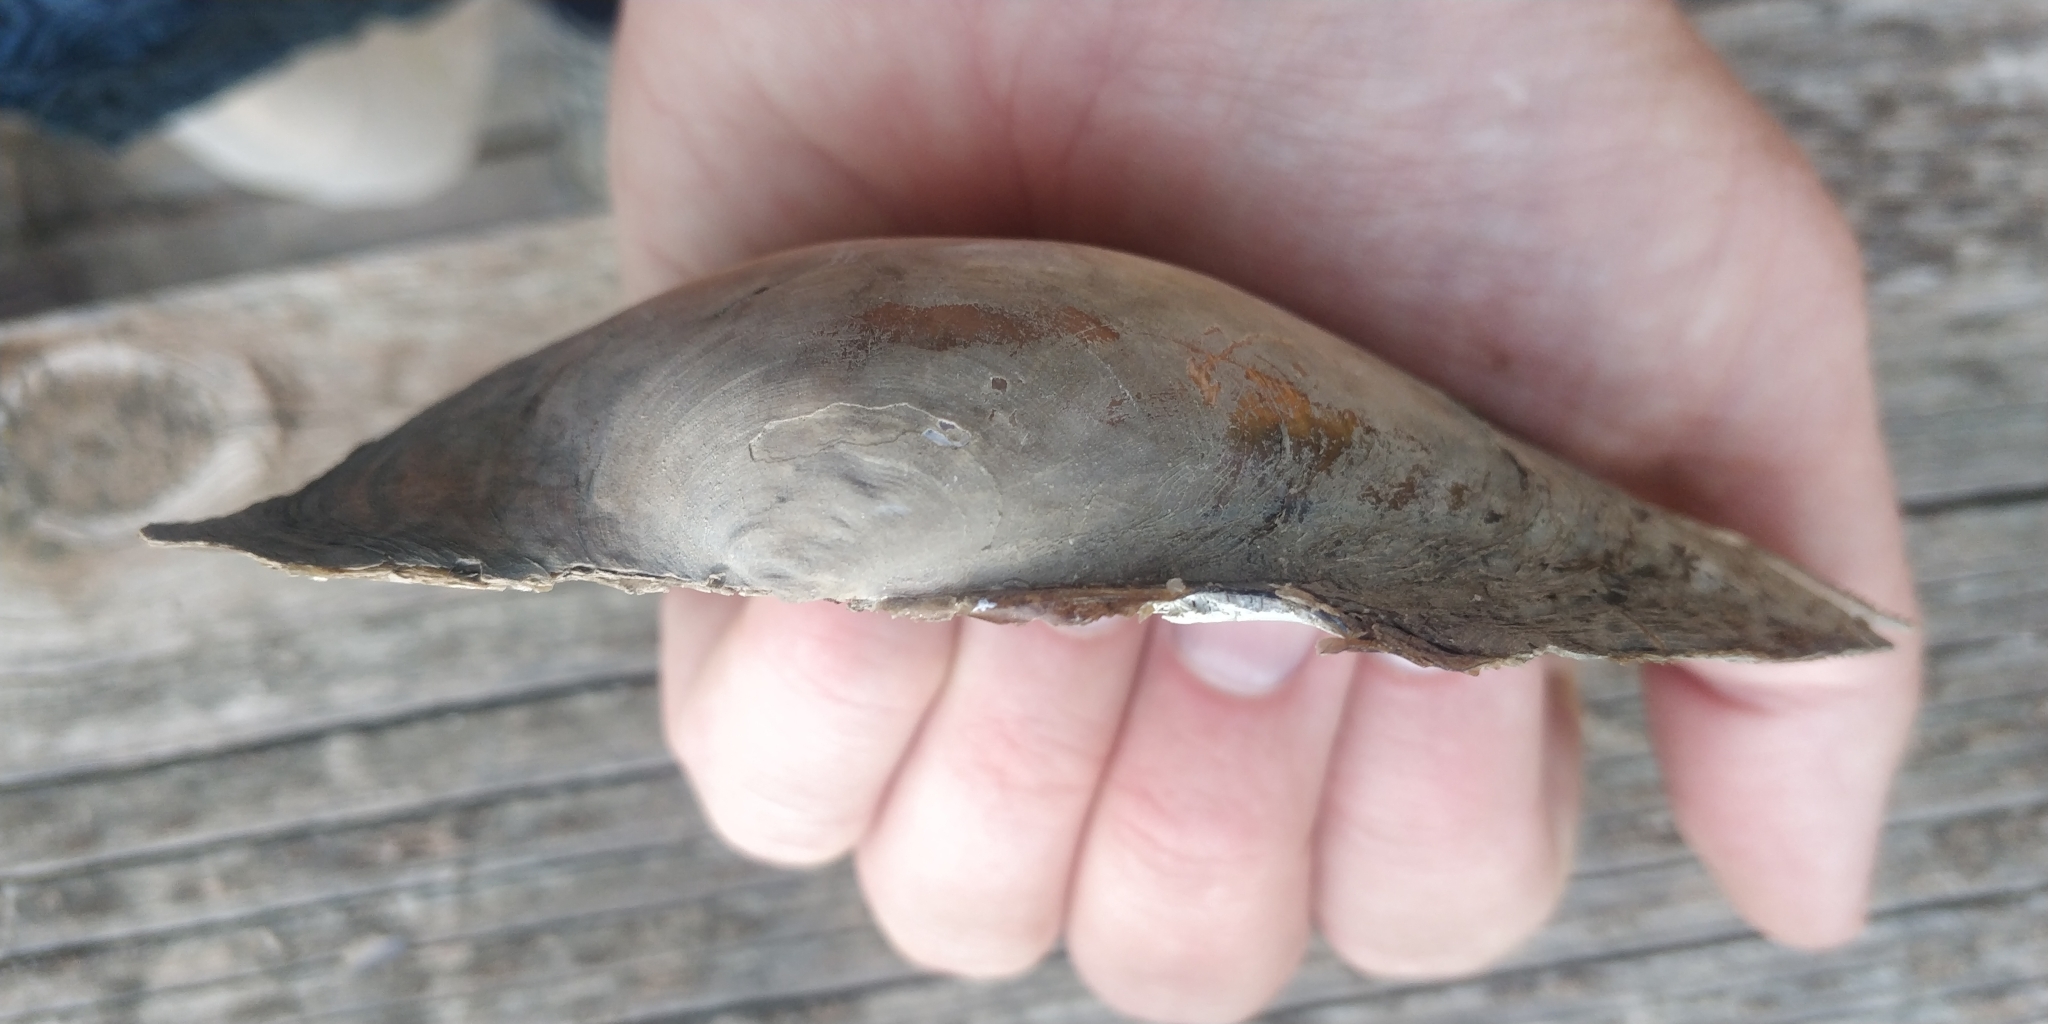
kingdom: Animalia
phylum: Mollusca
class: Bivalvia
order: Unionida
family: Unionidae
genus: Pyganodon
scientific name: Pyganodon grandis
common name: Giant floater
